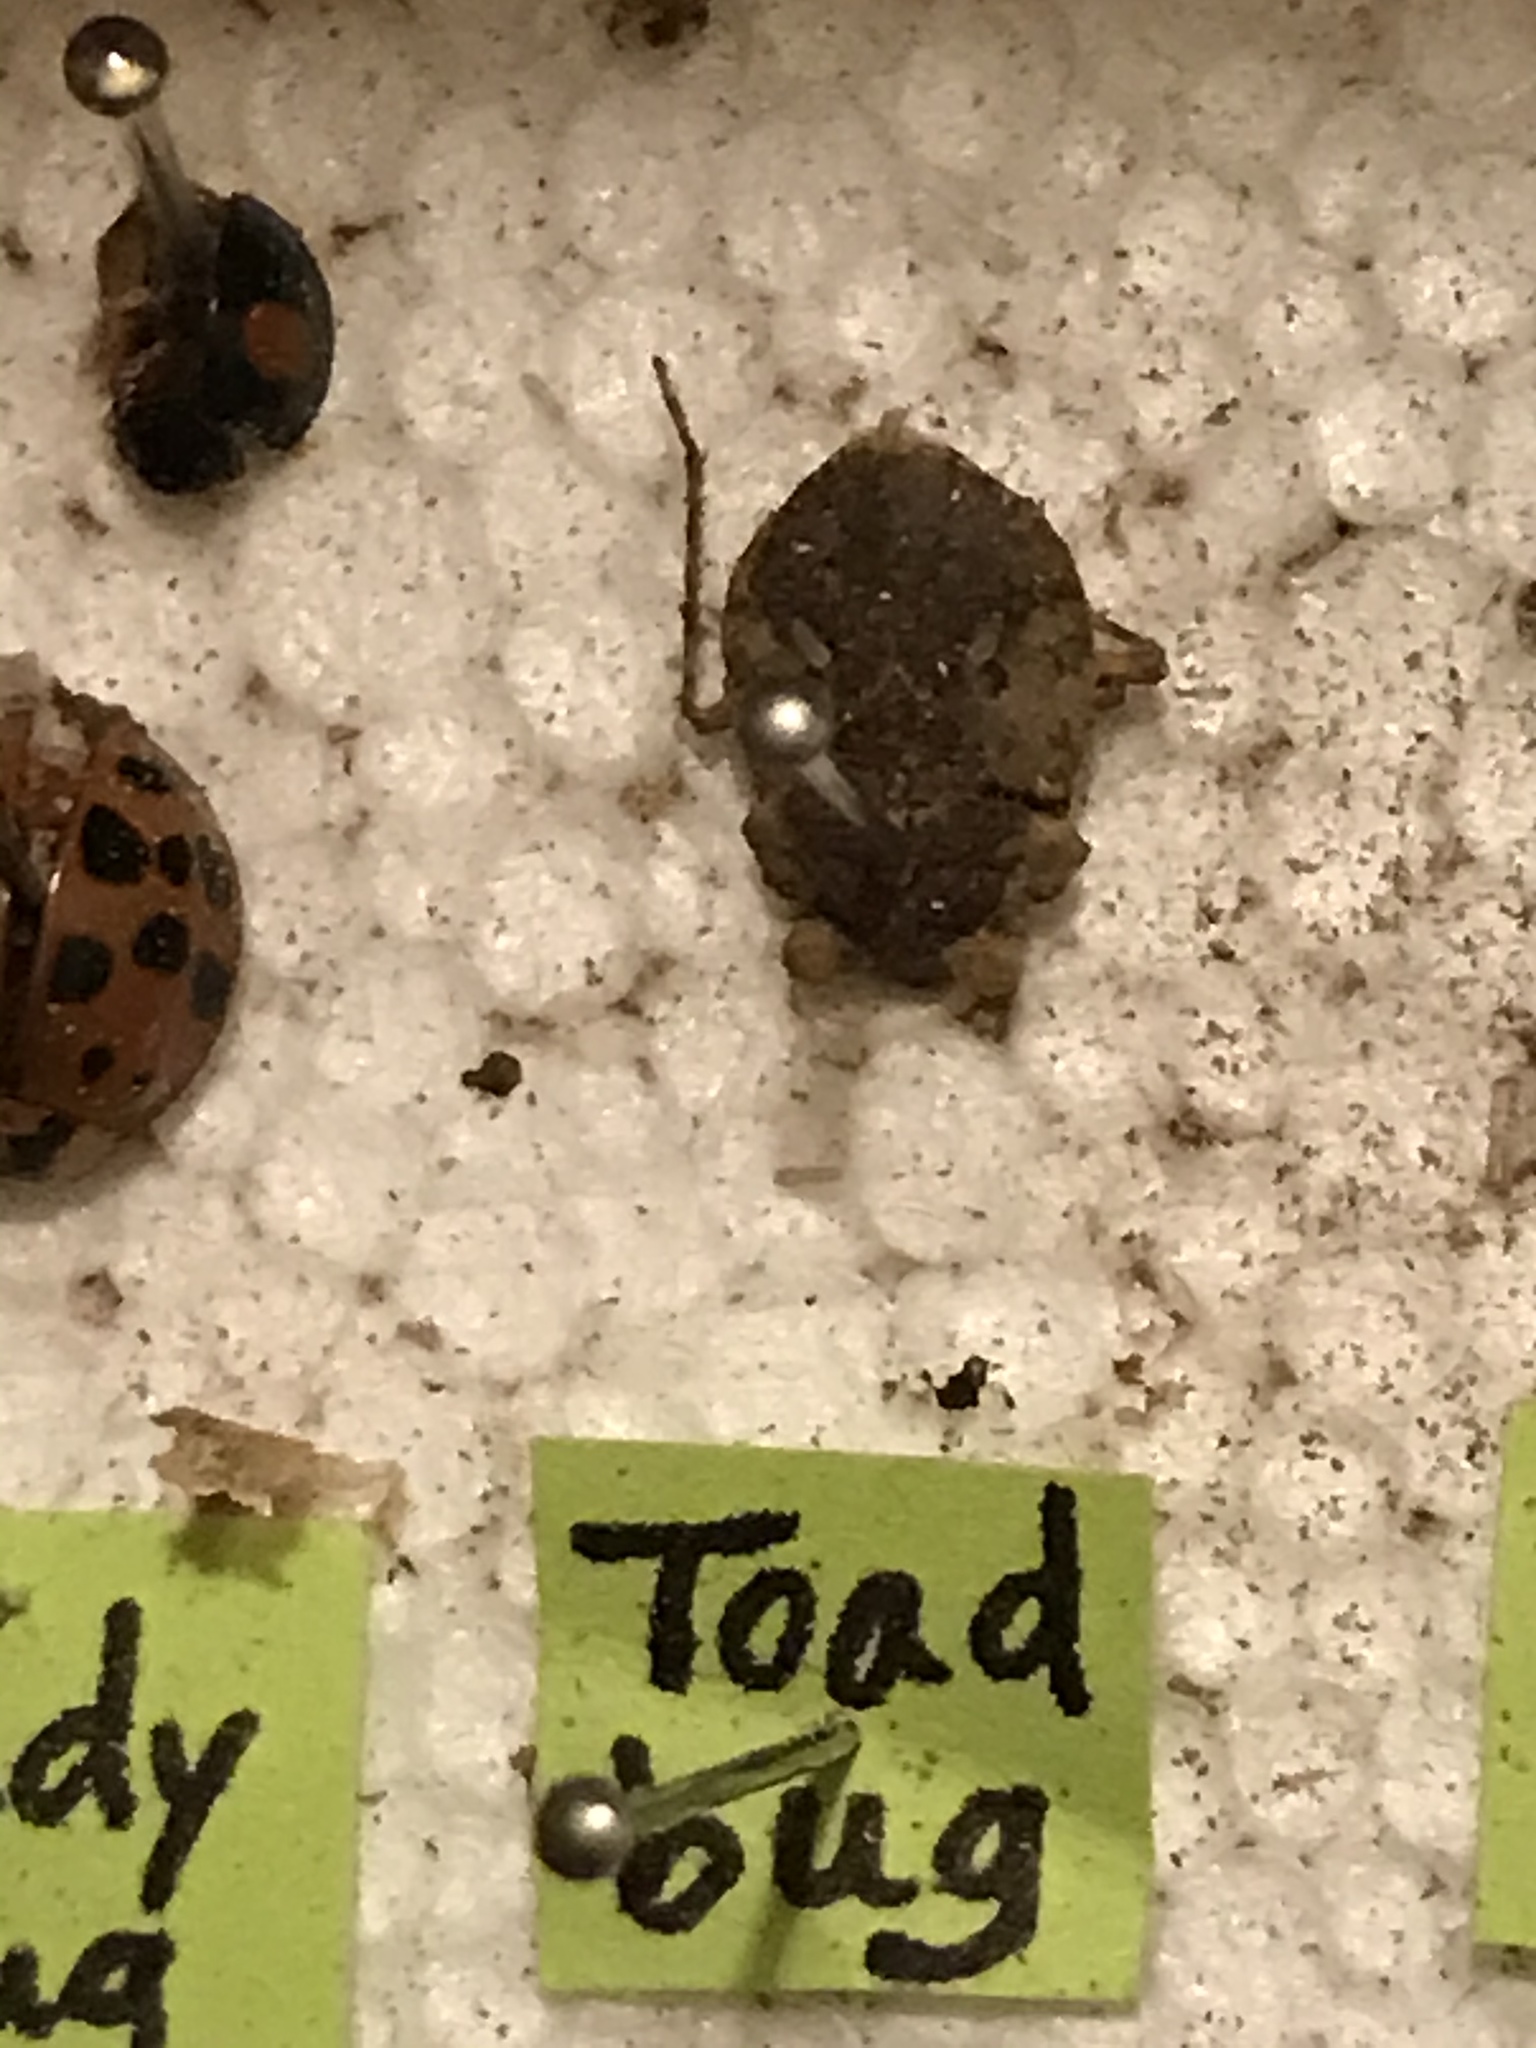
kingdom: Animalia
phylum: Arthropoda
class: Insecta
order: Hemiptera
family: Gelastocoridae
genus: Gelastocoris
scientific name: Gelastocoris oculatus
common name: Toad bug
